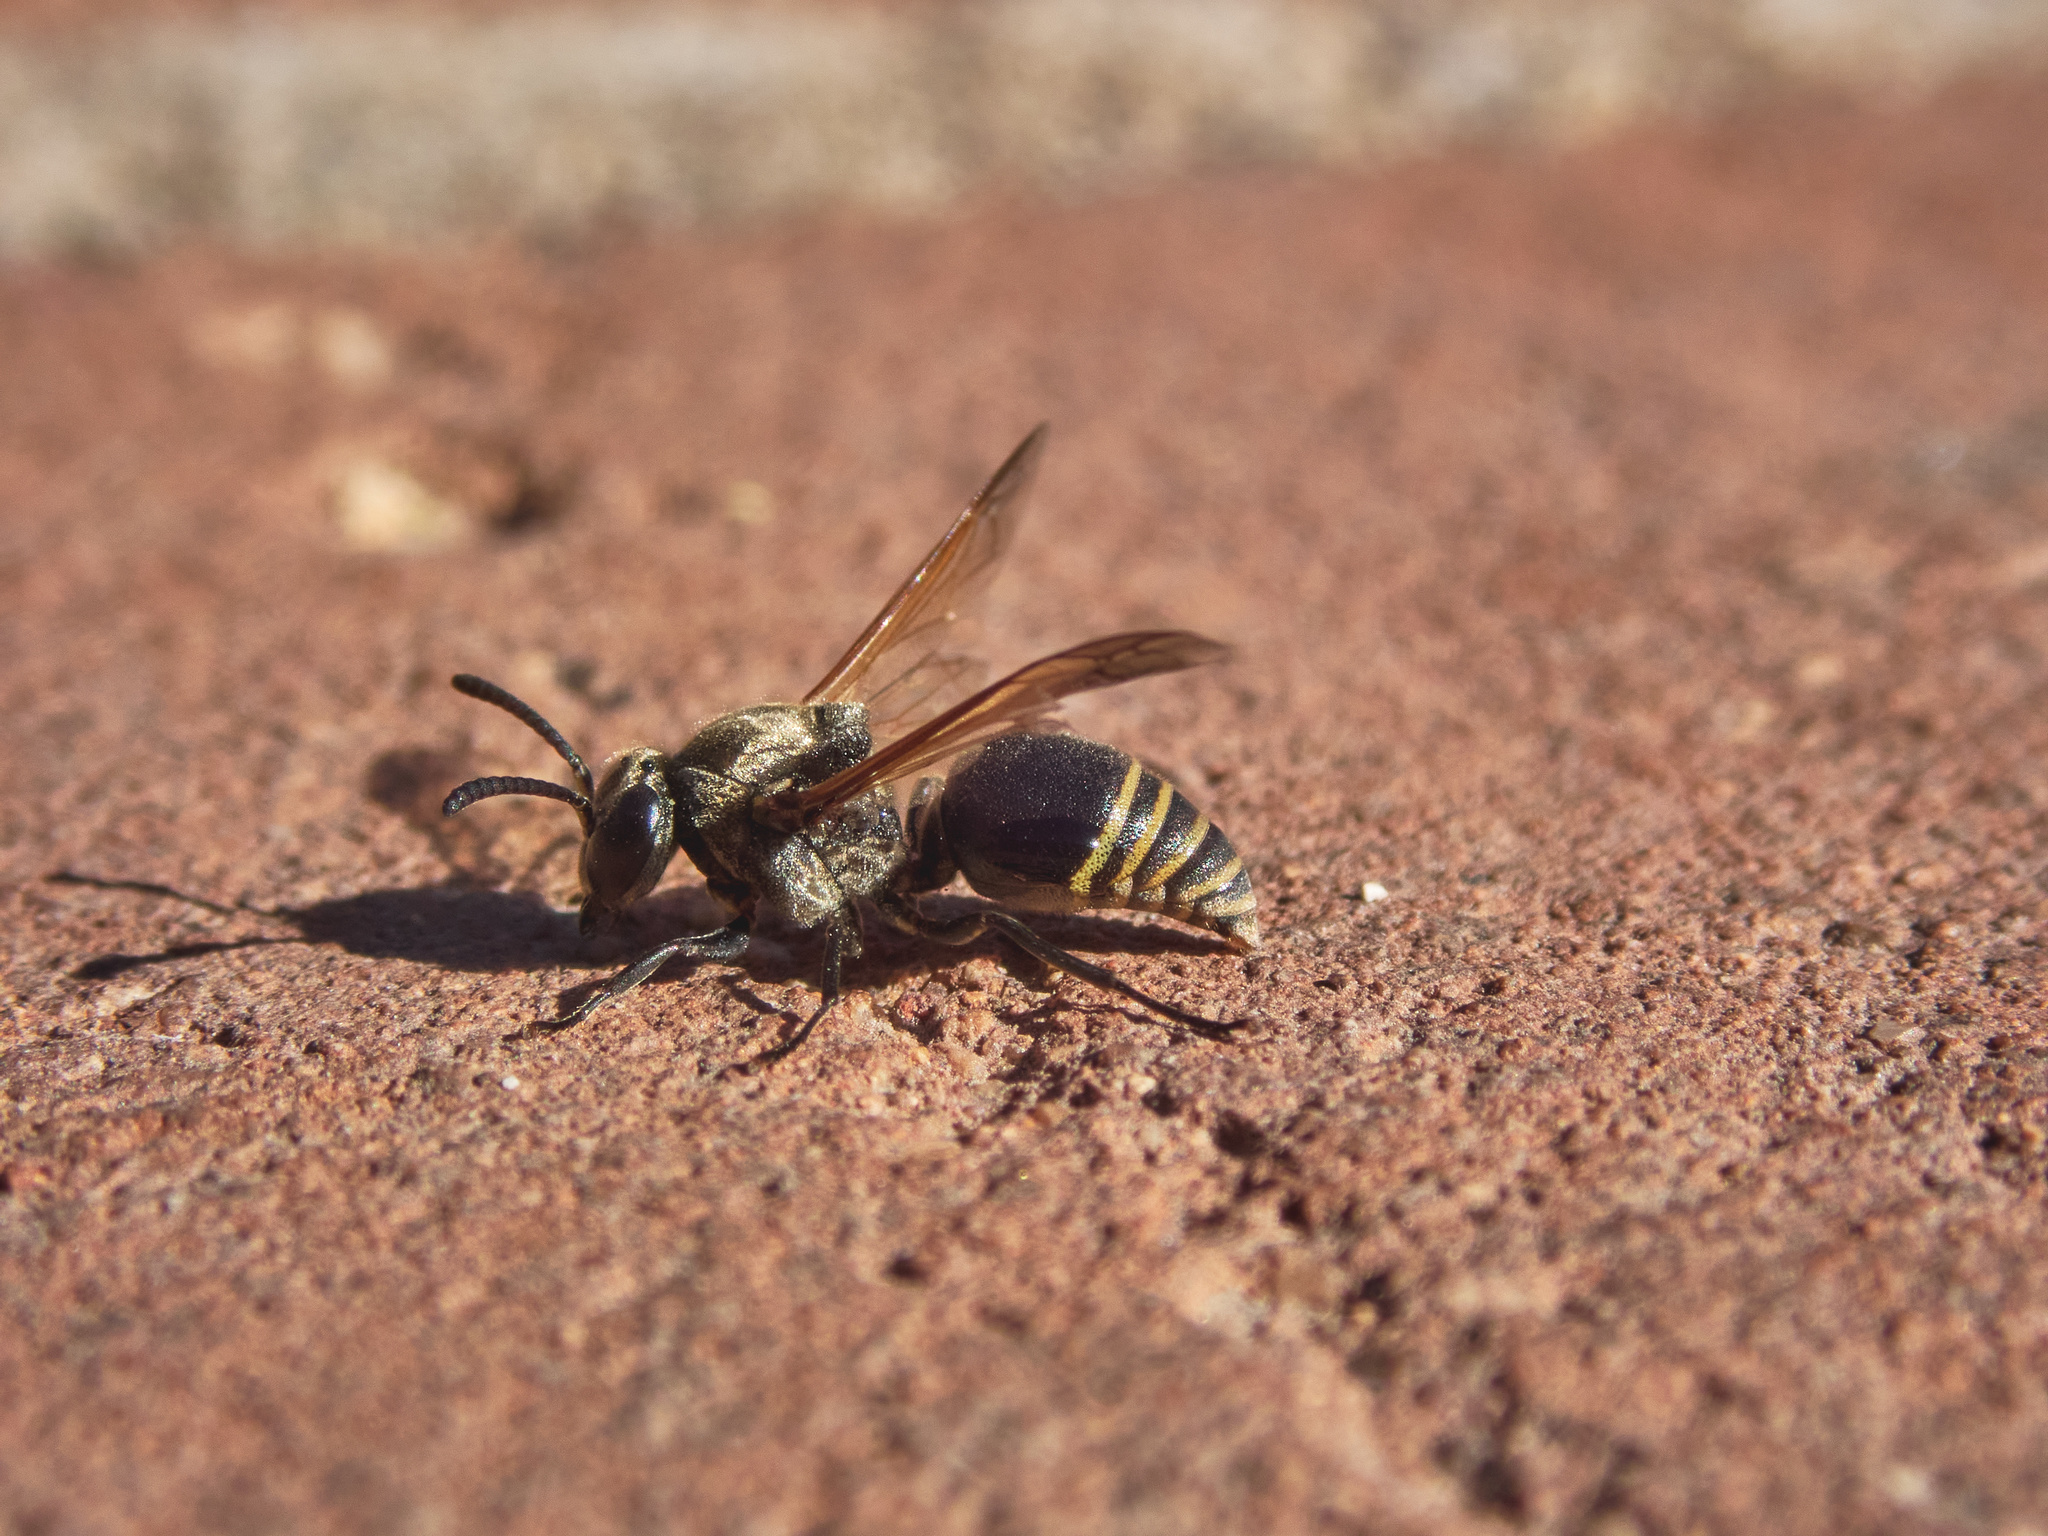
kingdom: Animalia
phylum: Arthropoda
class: Insecta
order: Hymenoptera
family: Vespidae
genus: Brachygastra
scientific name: Brachygastra mellifica
